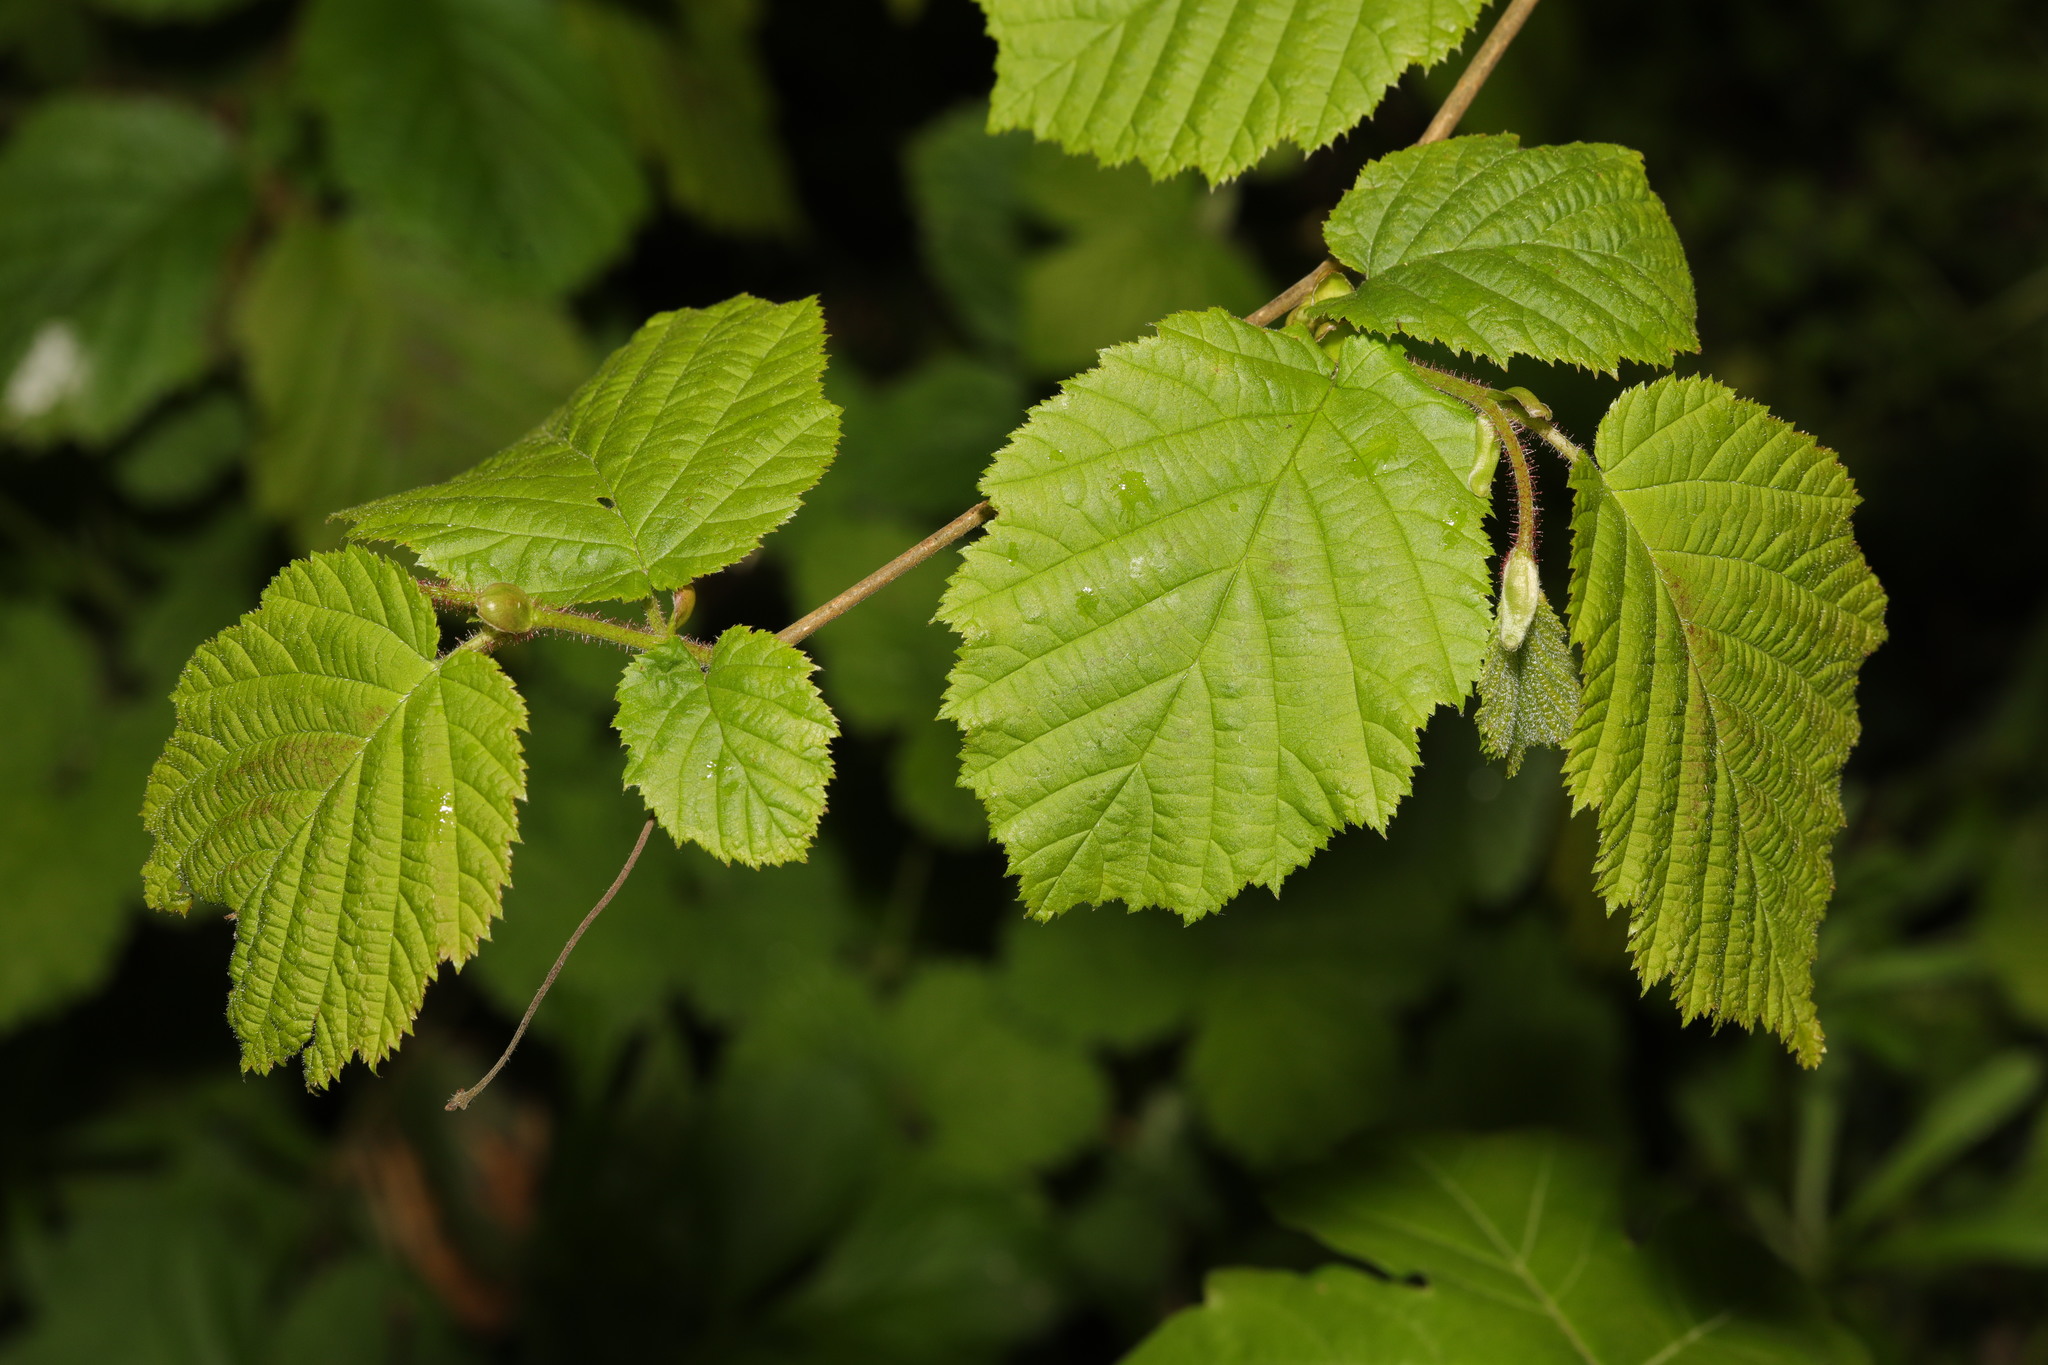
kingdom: Plantae
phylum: Tracheophyta
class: Magnoliopsida
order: Fagales
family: Betulaceae
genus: Corylus
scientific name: Corylus avellana
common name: European hazel
